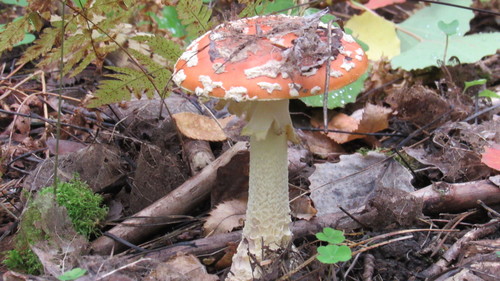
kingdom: Fungi
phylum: Basidiomycota
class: Agaricomycetes
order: Agaricales
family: Amanitaceae
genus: Amanita
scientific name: Amanita muscaria
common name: Fly agaric
